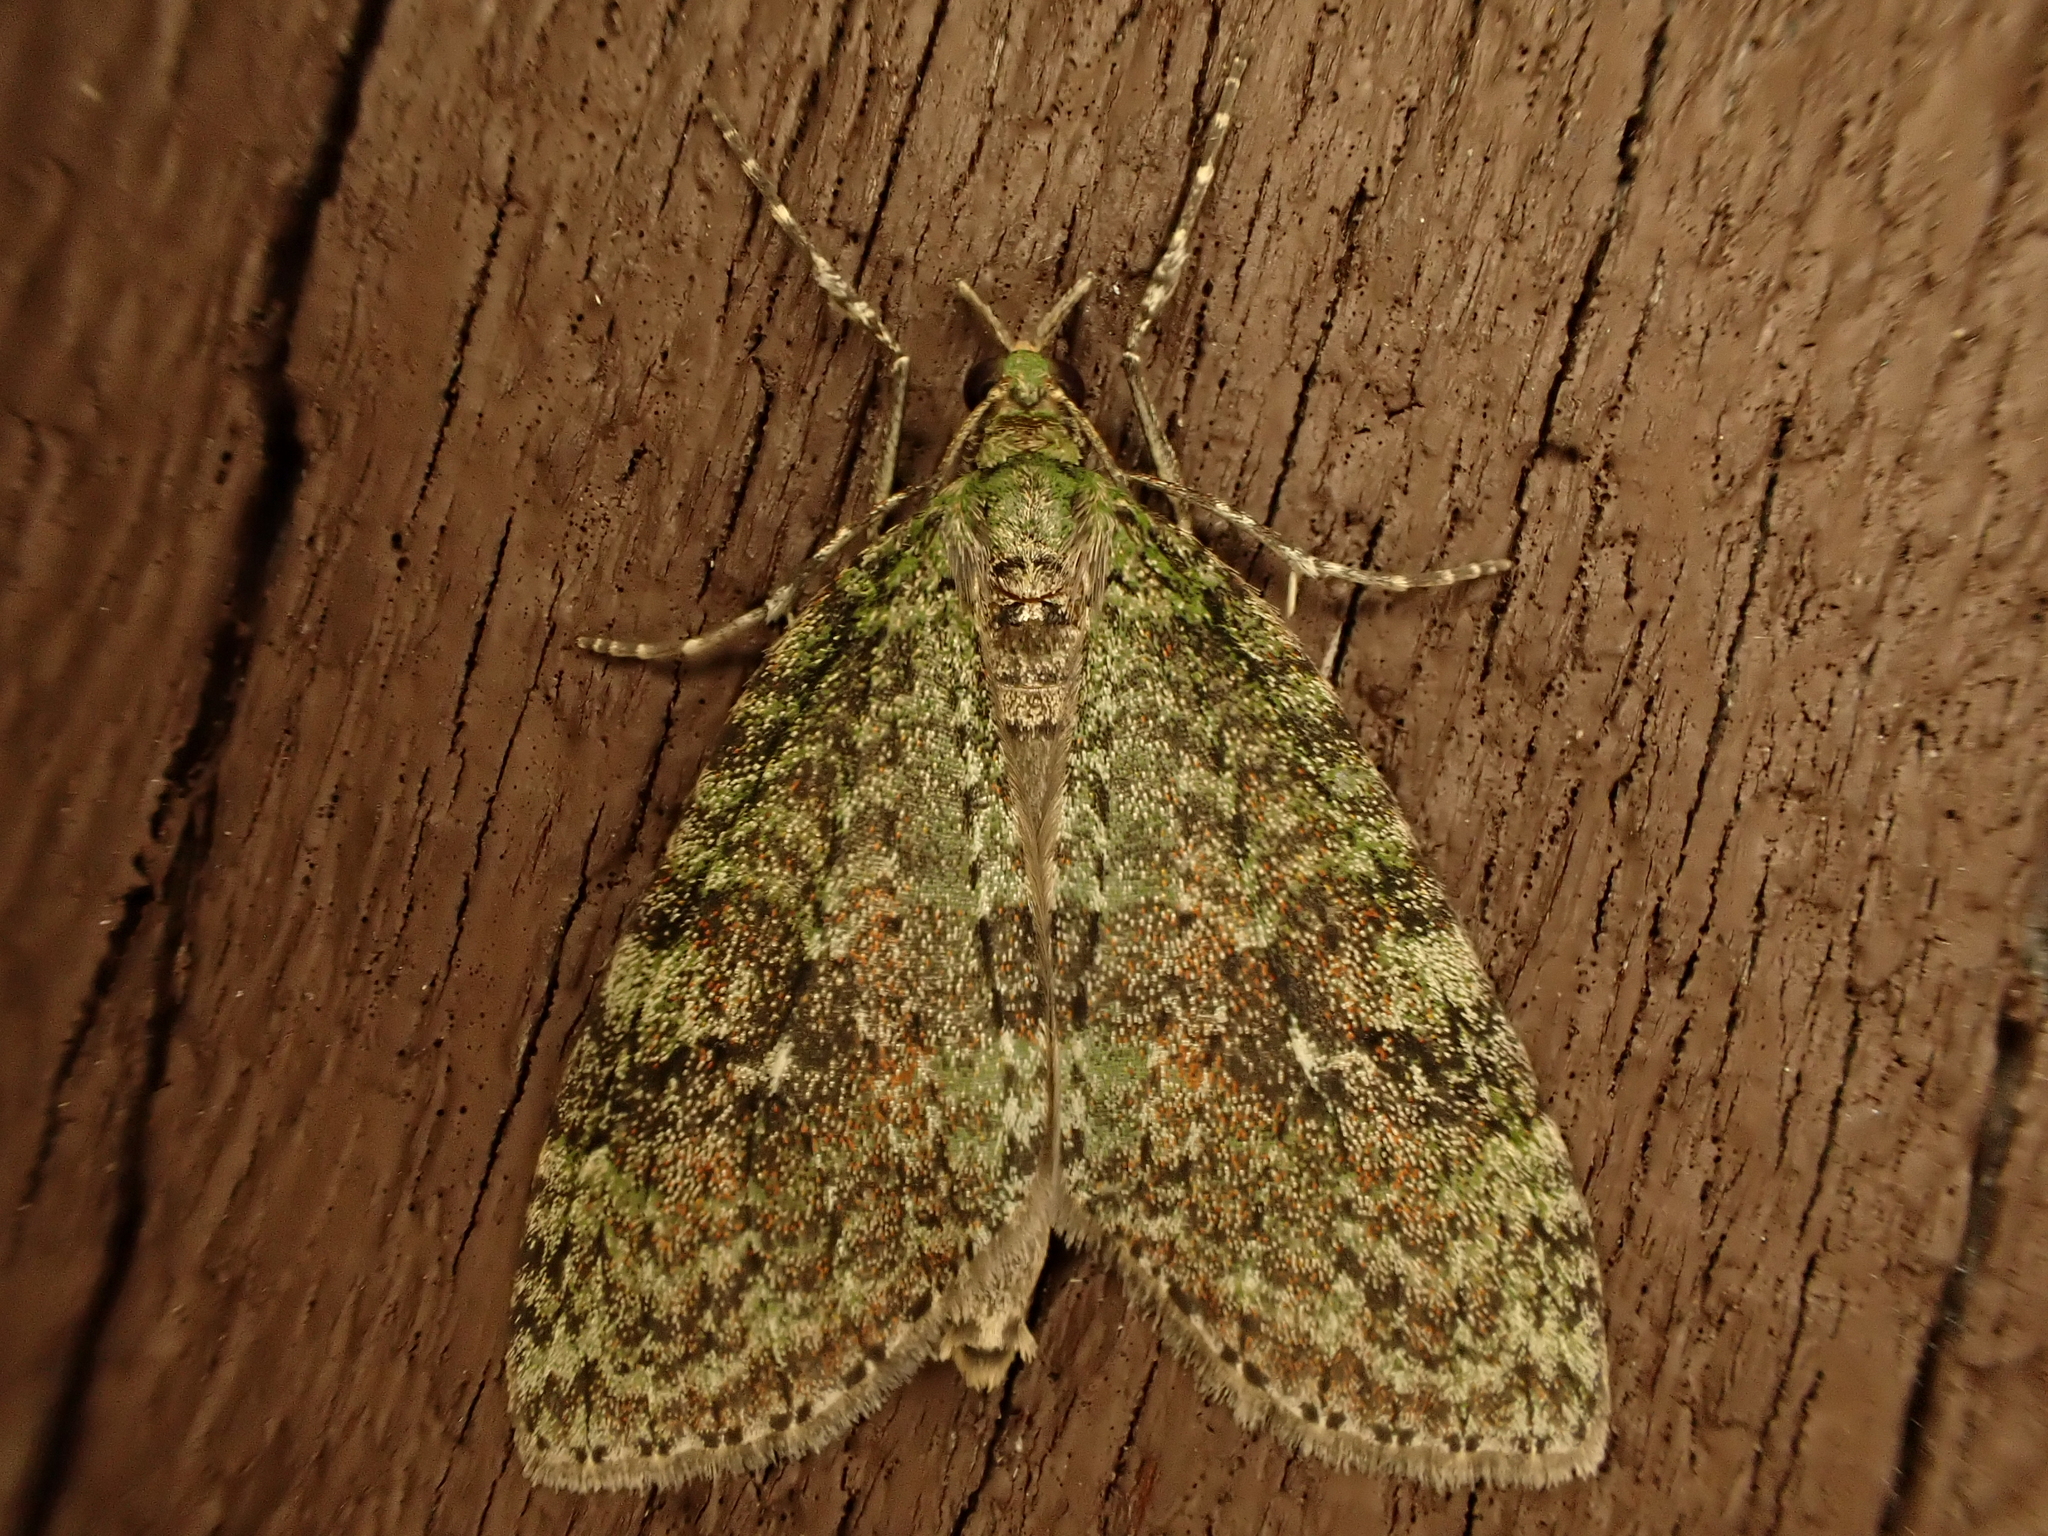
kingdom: Animalia
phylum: Arthropoda
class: Insecta
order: Lepidoptera
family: Geometridae
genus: Tatosoma
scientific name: Tatosoma transitaria
